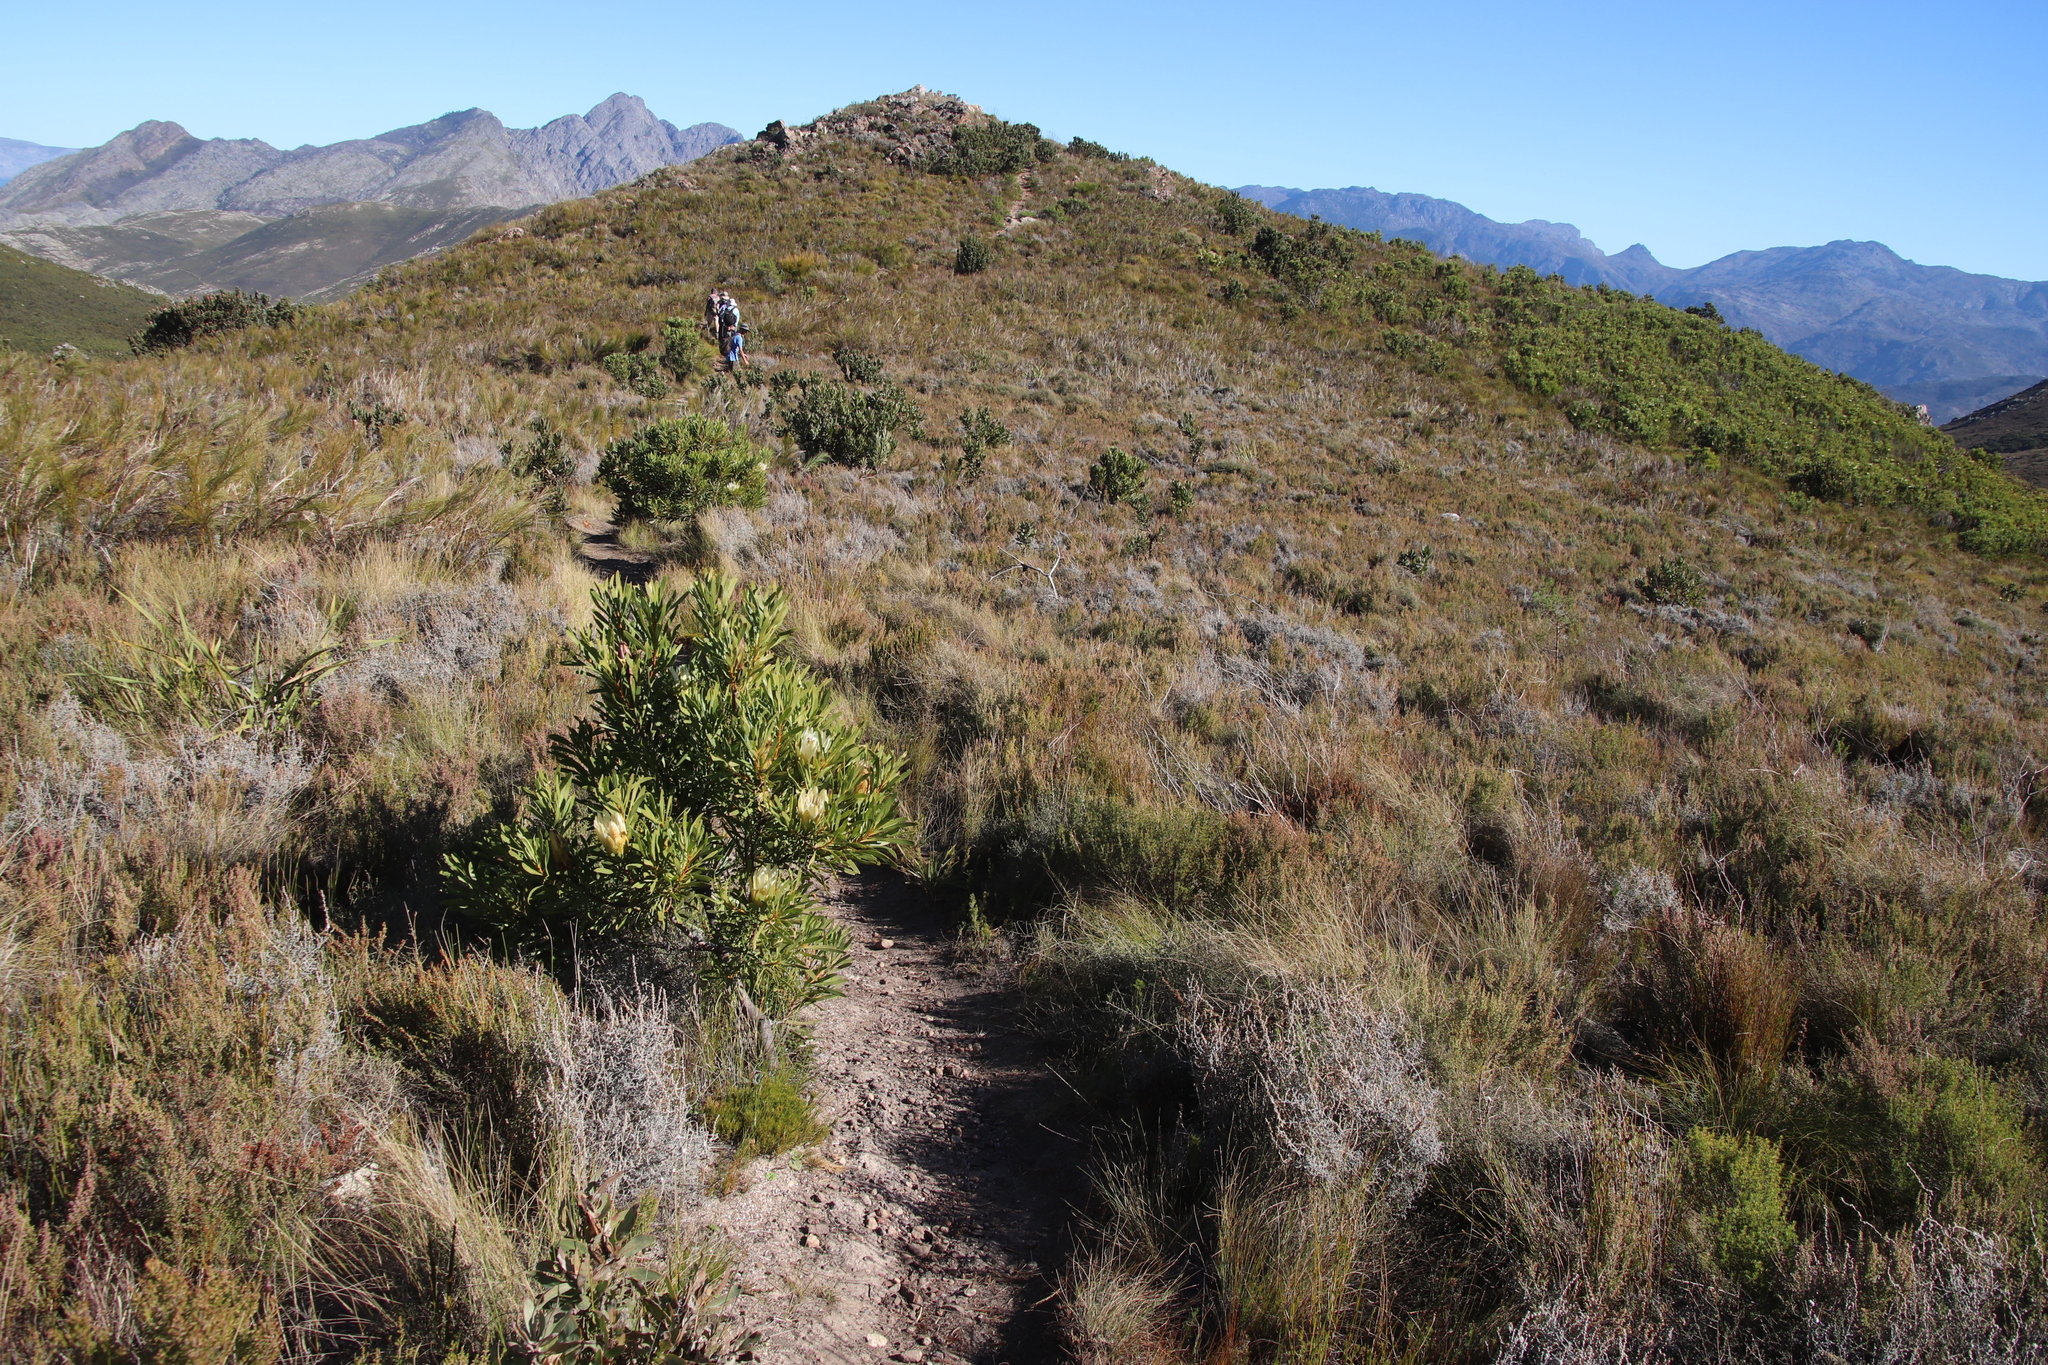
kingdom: Plantae
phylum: Tracheophyta
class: Magnoliopsida
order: Proteales
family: Proteaceae
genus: Protea
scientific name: Protea repens
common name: Sugarbush
